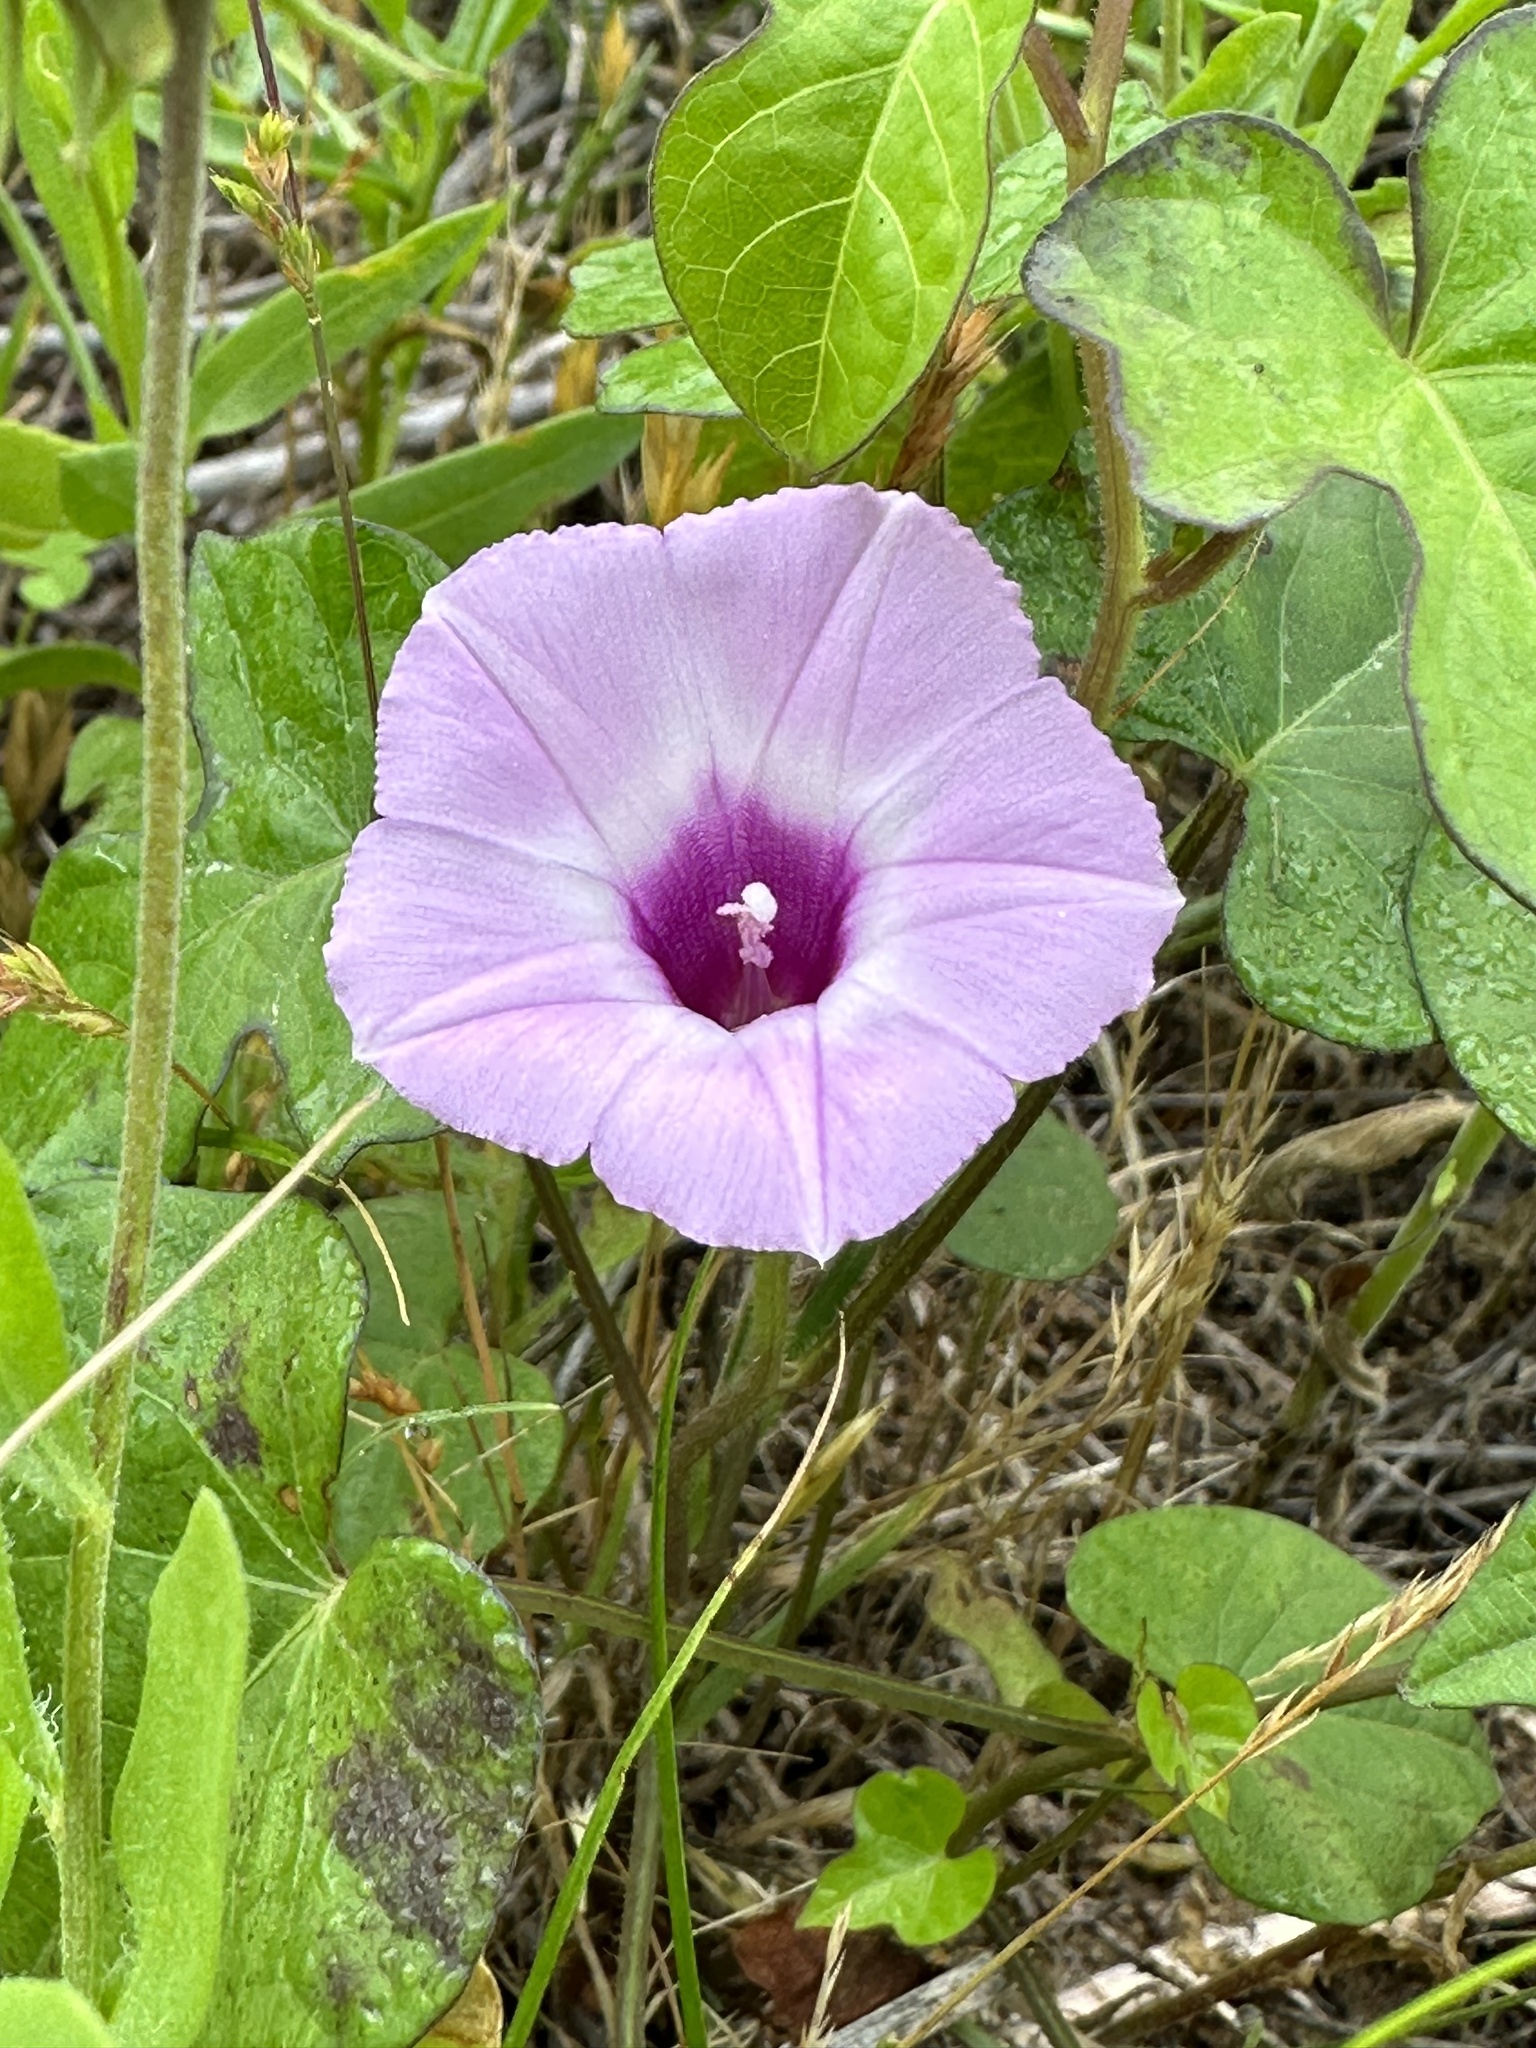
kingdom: Plantae
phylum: Tracheophyta
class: Magnoliopsida
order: Solanales
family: Convolvulaceae
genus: Ipomoea
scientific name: Ipomoea cordatotriloba
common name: Cotton morning glory
